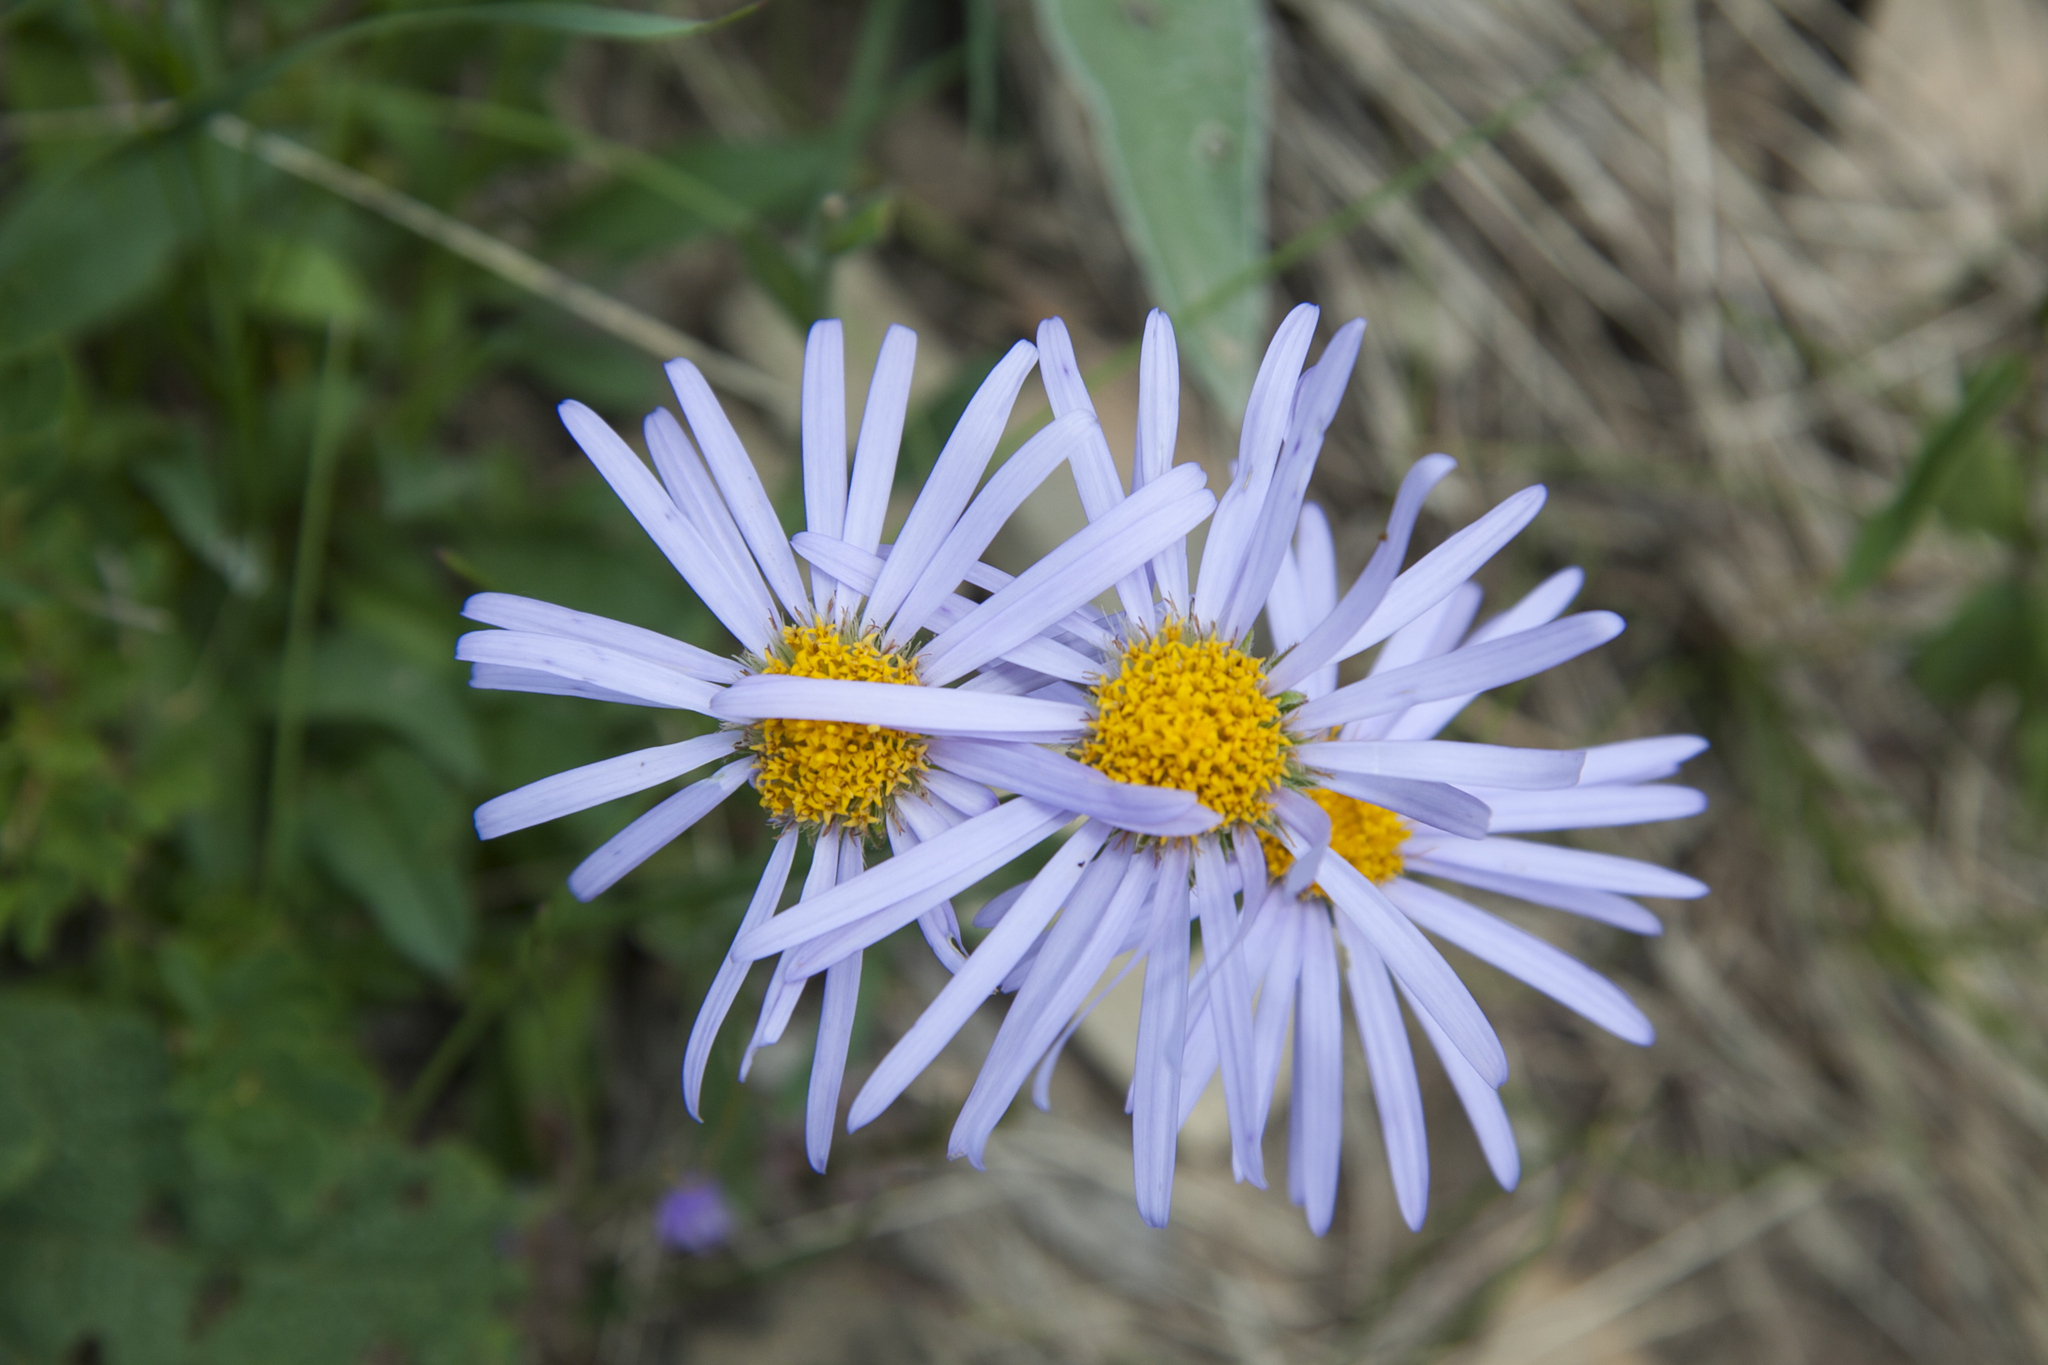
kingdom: Plantae
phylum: Tracheophyta
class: Magnoliopsida
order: Asterales
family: Asteraceae
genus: Aster
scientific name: Aster amellus
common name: European michaelmas daisy
